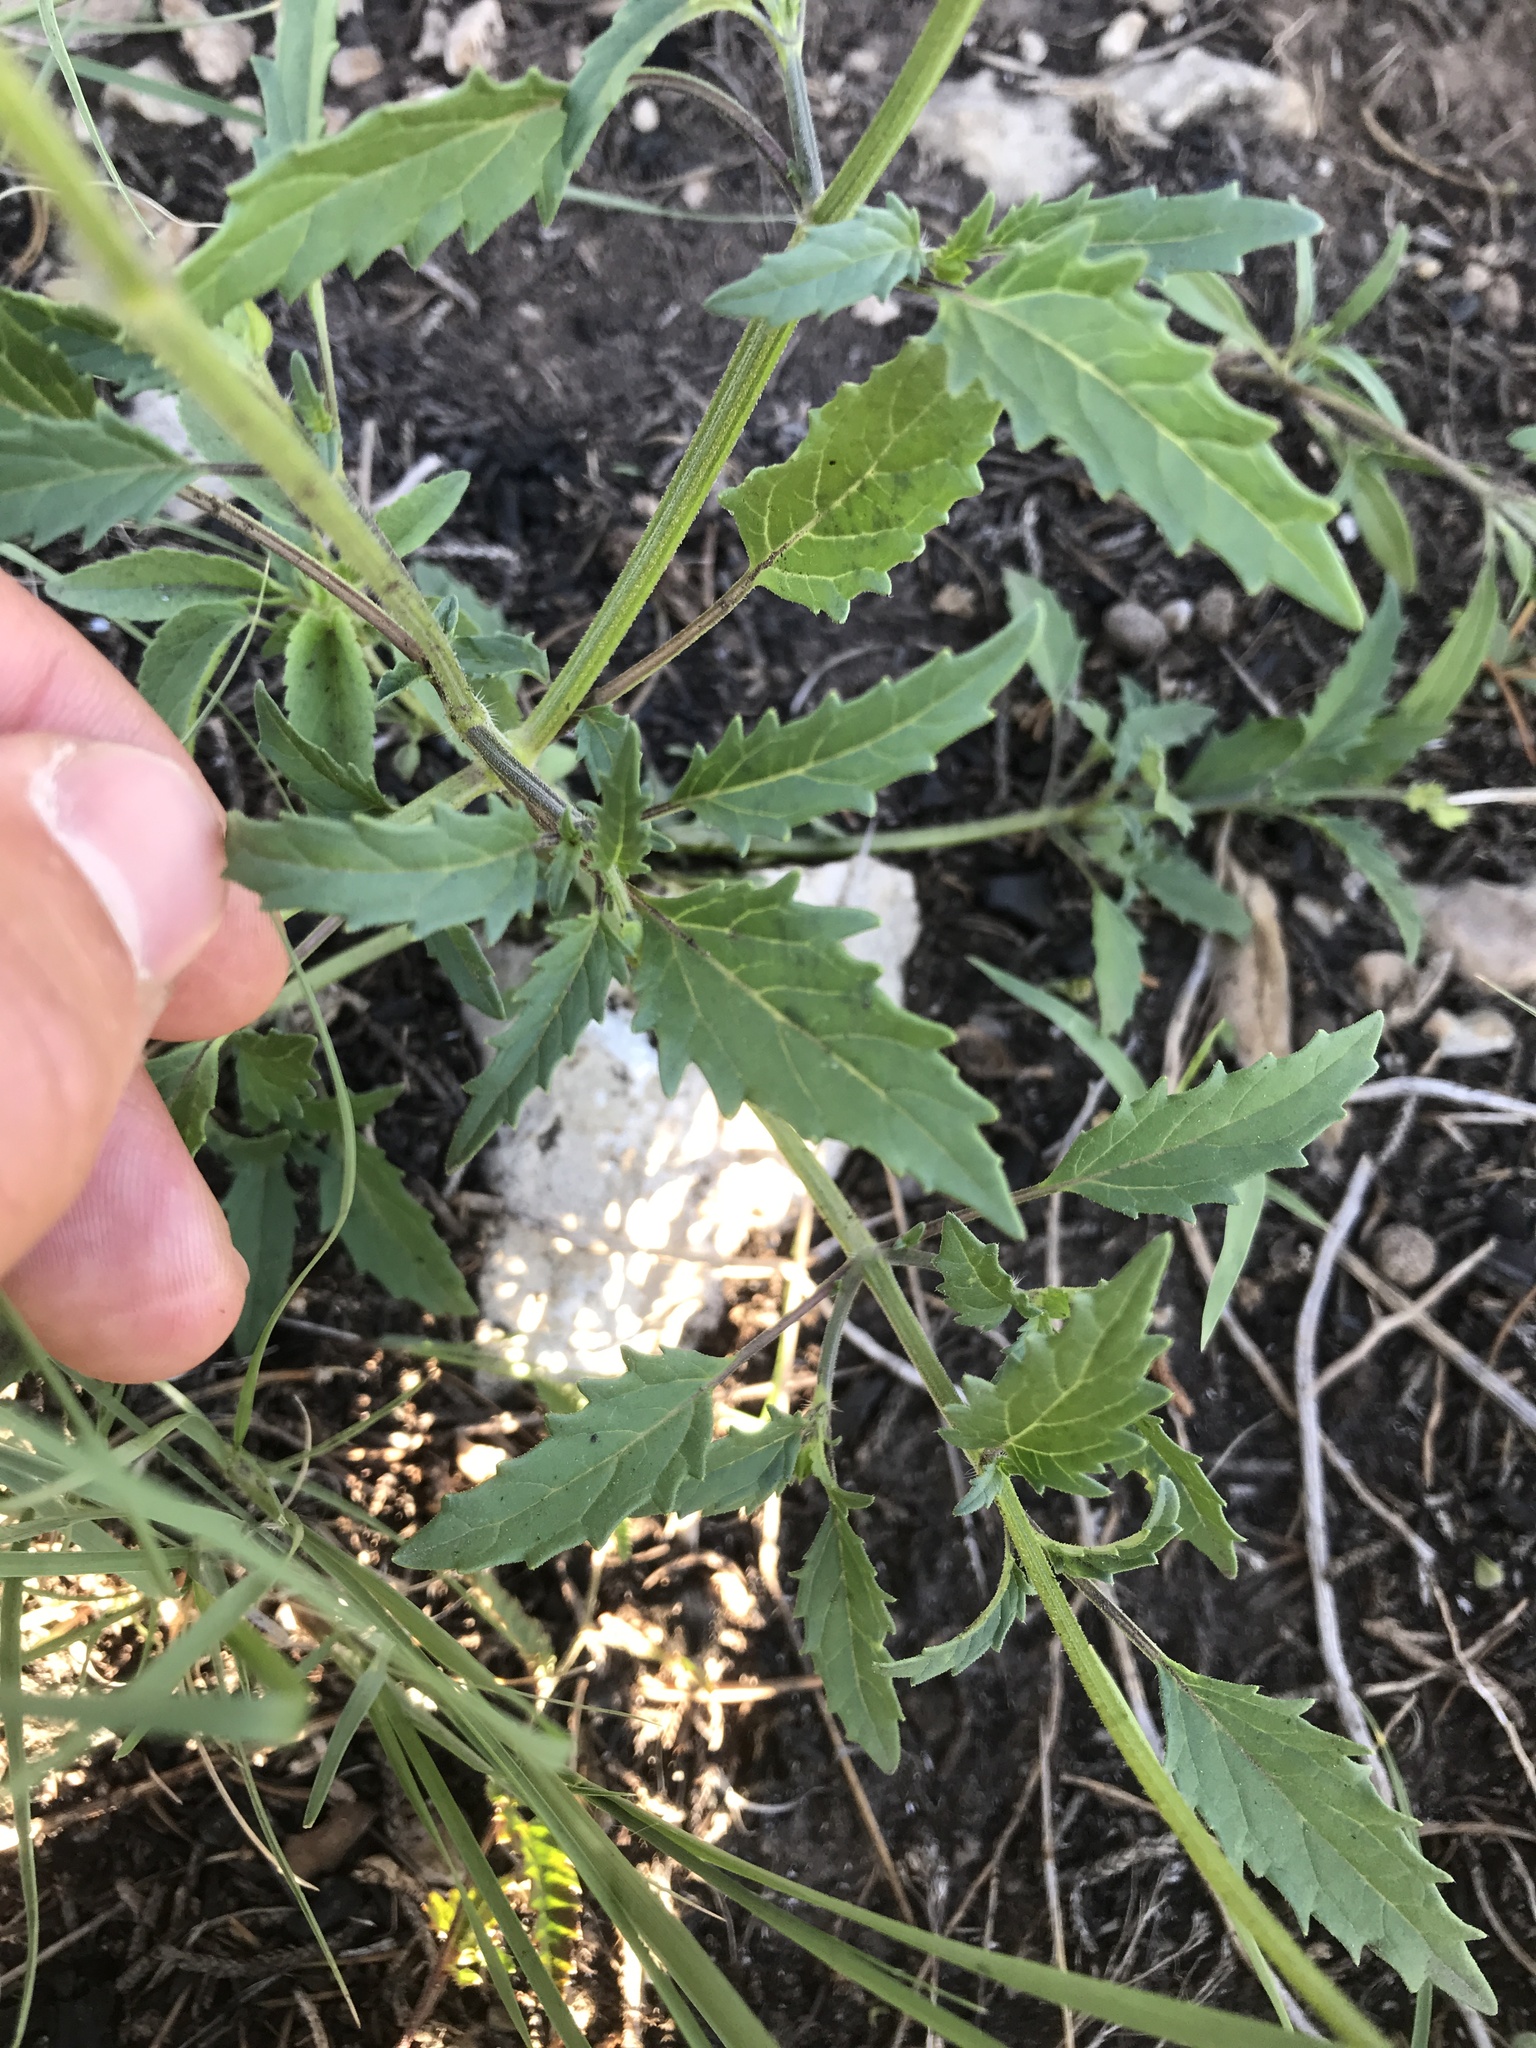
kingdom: Plantae
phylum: Tracheophyta
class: Magnoliopsida
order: Lamiales
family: Lamiaceae
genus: Salvia
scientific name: Salvia subincisa
